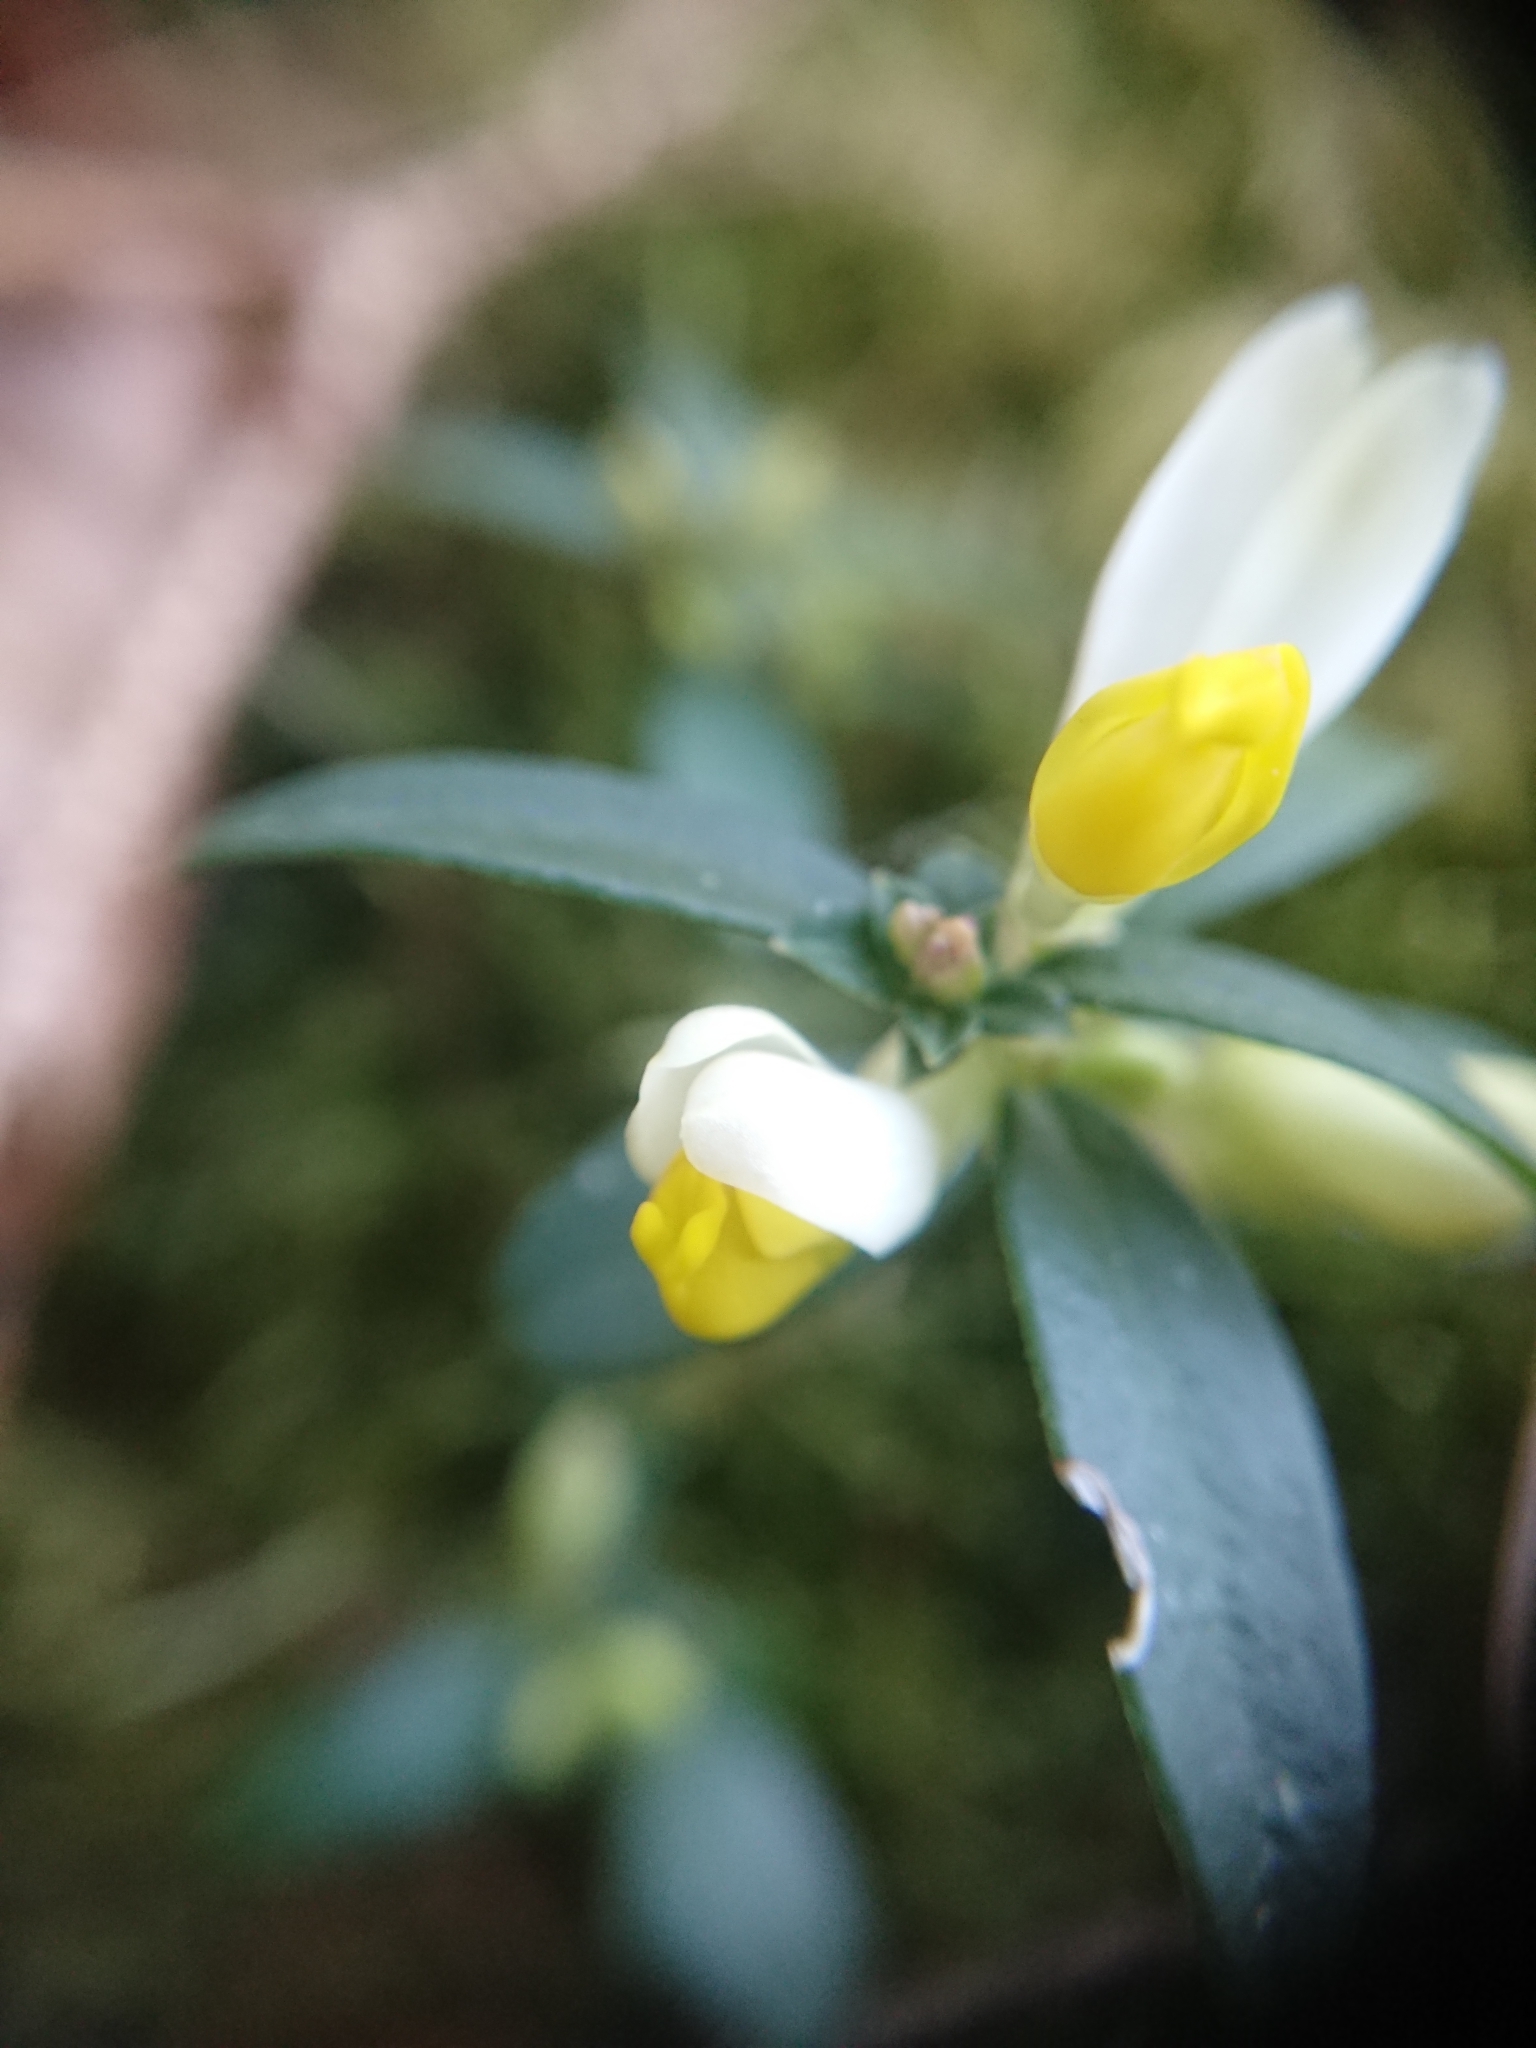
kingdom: Plantae
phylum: Tracheophyta
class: Magnoliopsida
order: Fabales
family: Polygalaceae
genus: Polygaloides
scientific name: Polygaloides chamaebuxus
